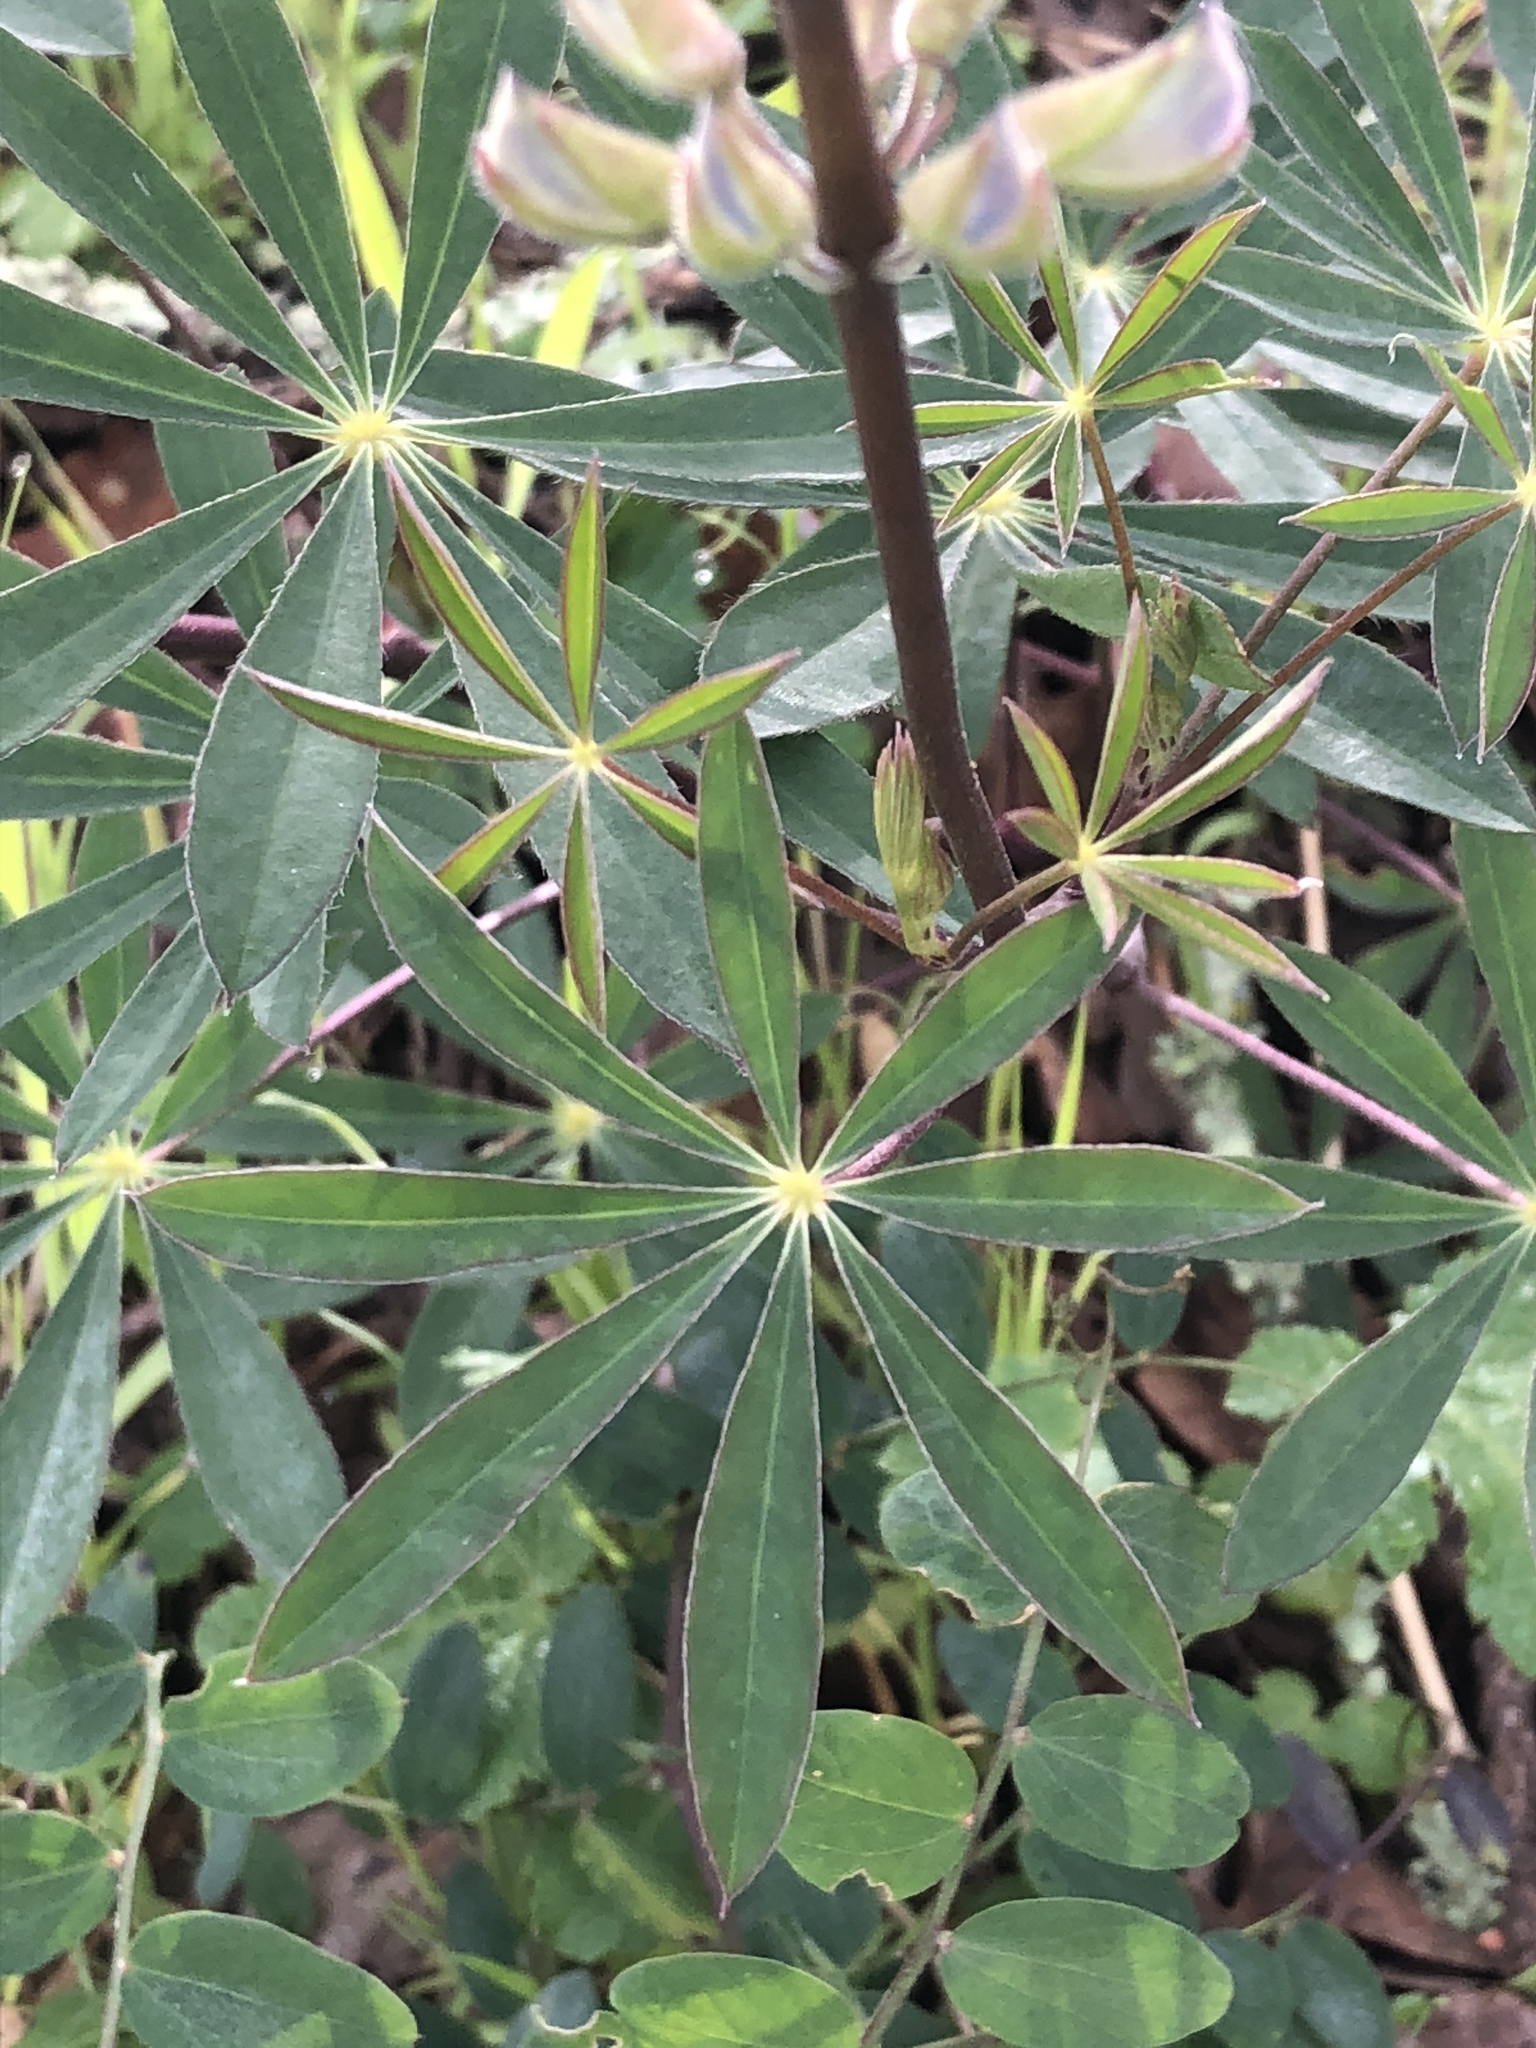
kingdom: Plantae
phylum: Tracheophyta
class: Magnoliopsida
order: Fabales
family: Fabaceae
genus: Lupinus
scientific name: Lupinus latifolius
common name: Broad-leaved lupine
